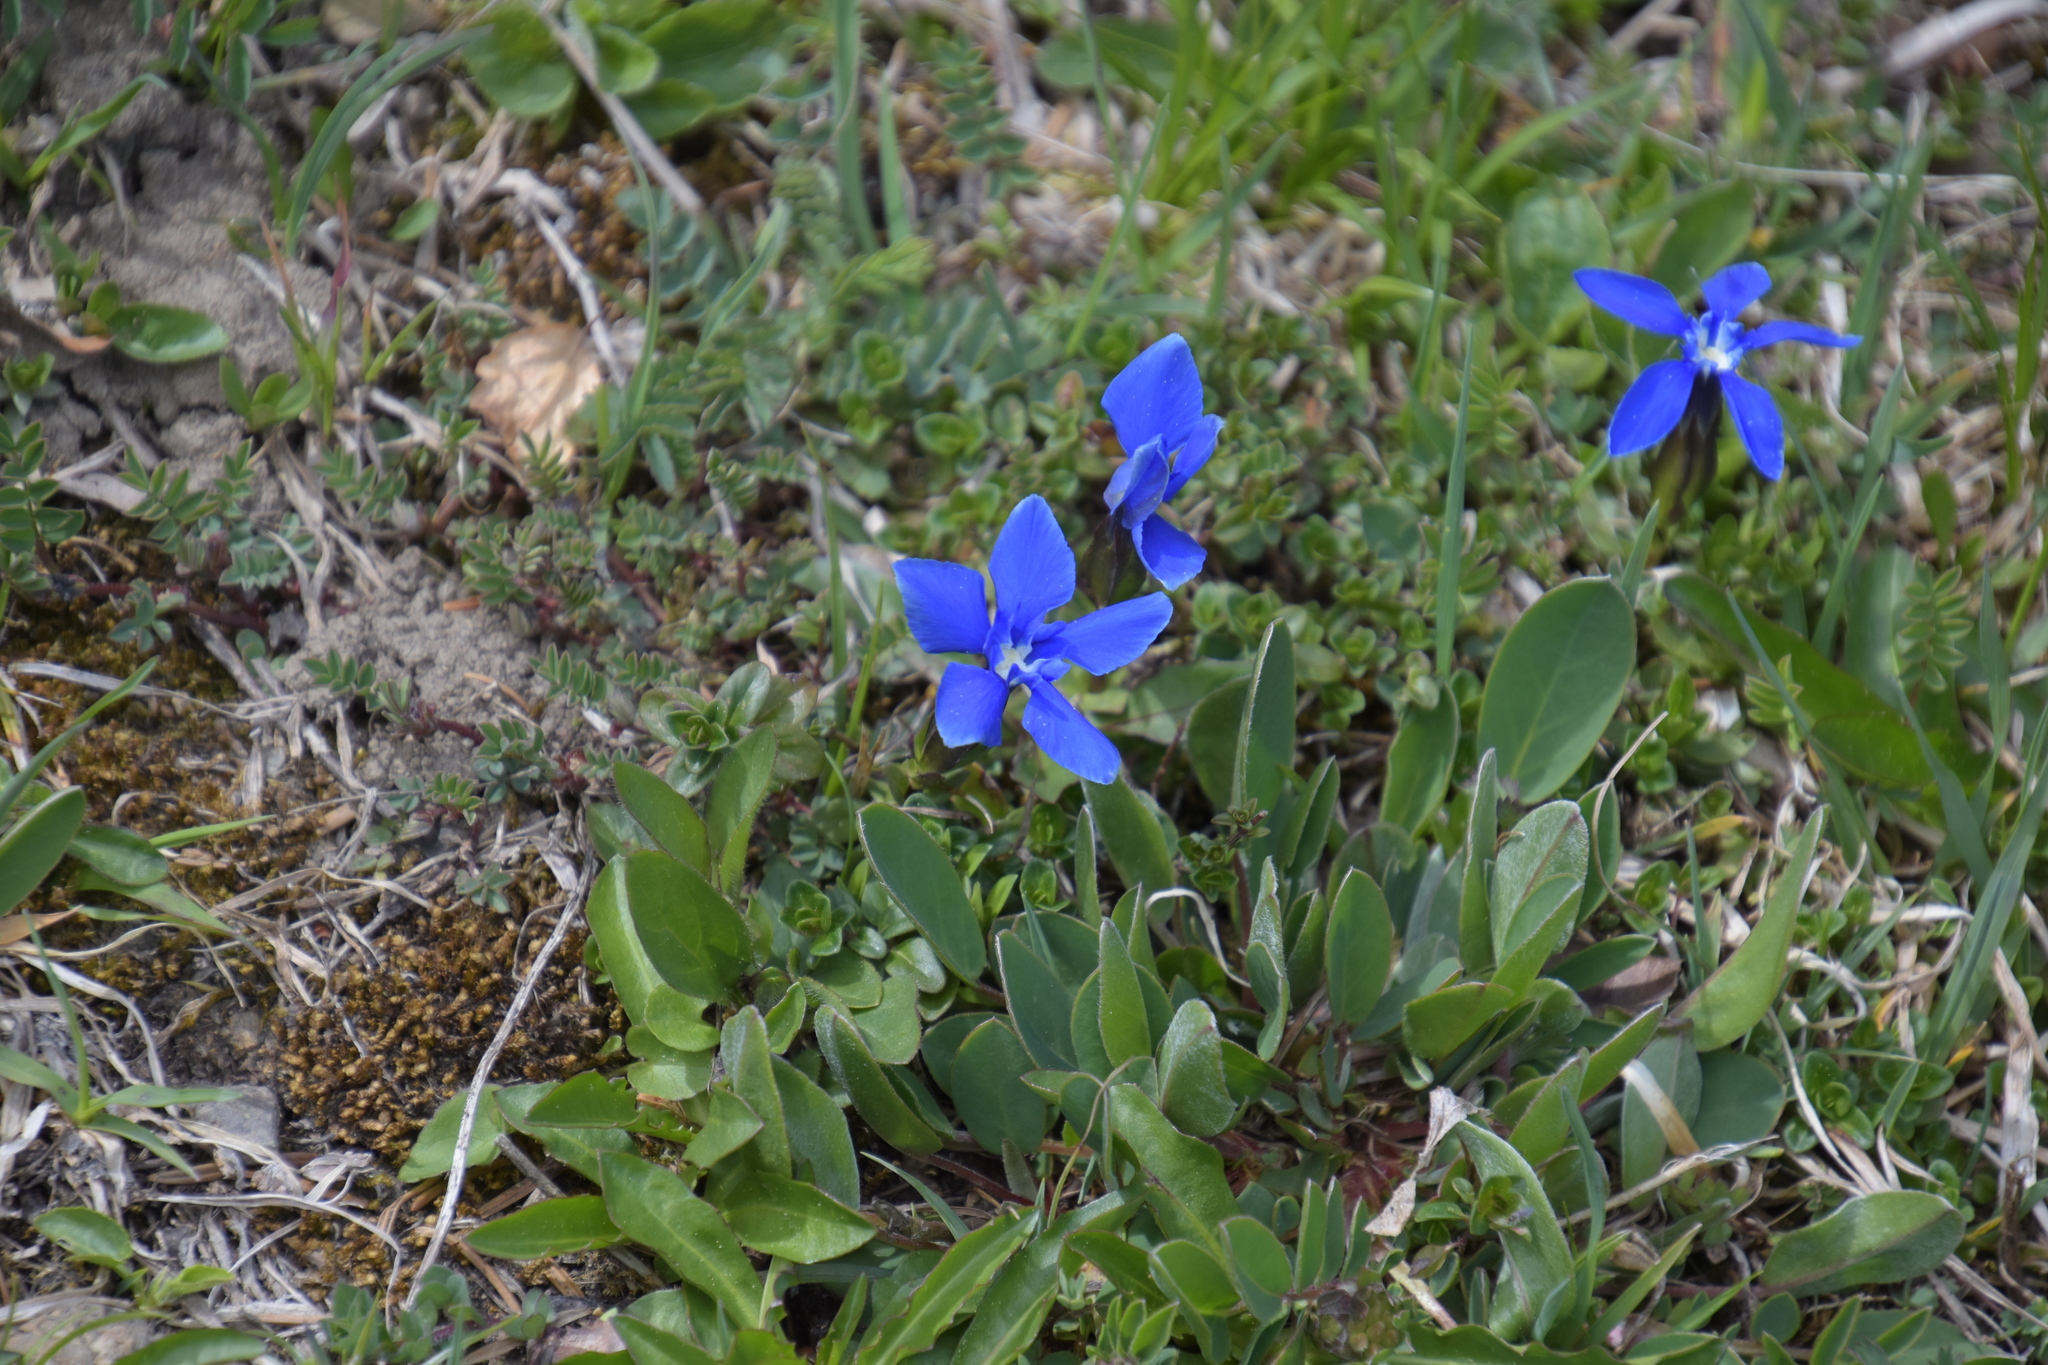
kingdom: Plantae
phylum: Tracheophyta
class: Magnoliopsida
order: Gentianales
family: Gentianaceae
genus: Gentiana
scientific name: Gentiana verna
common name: Spring gentian
